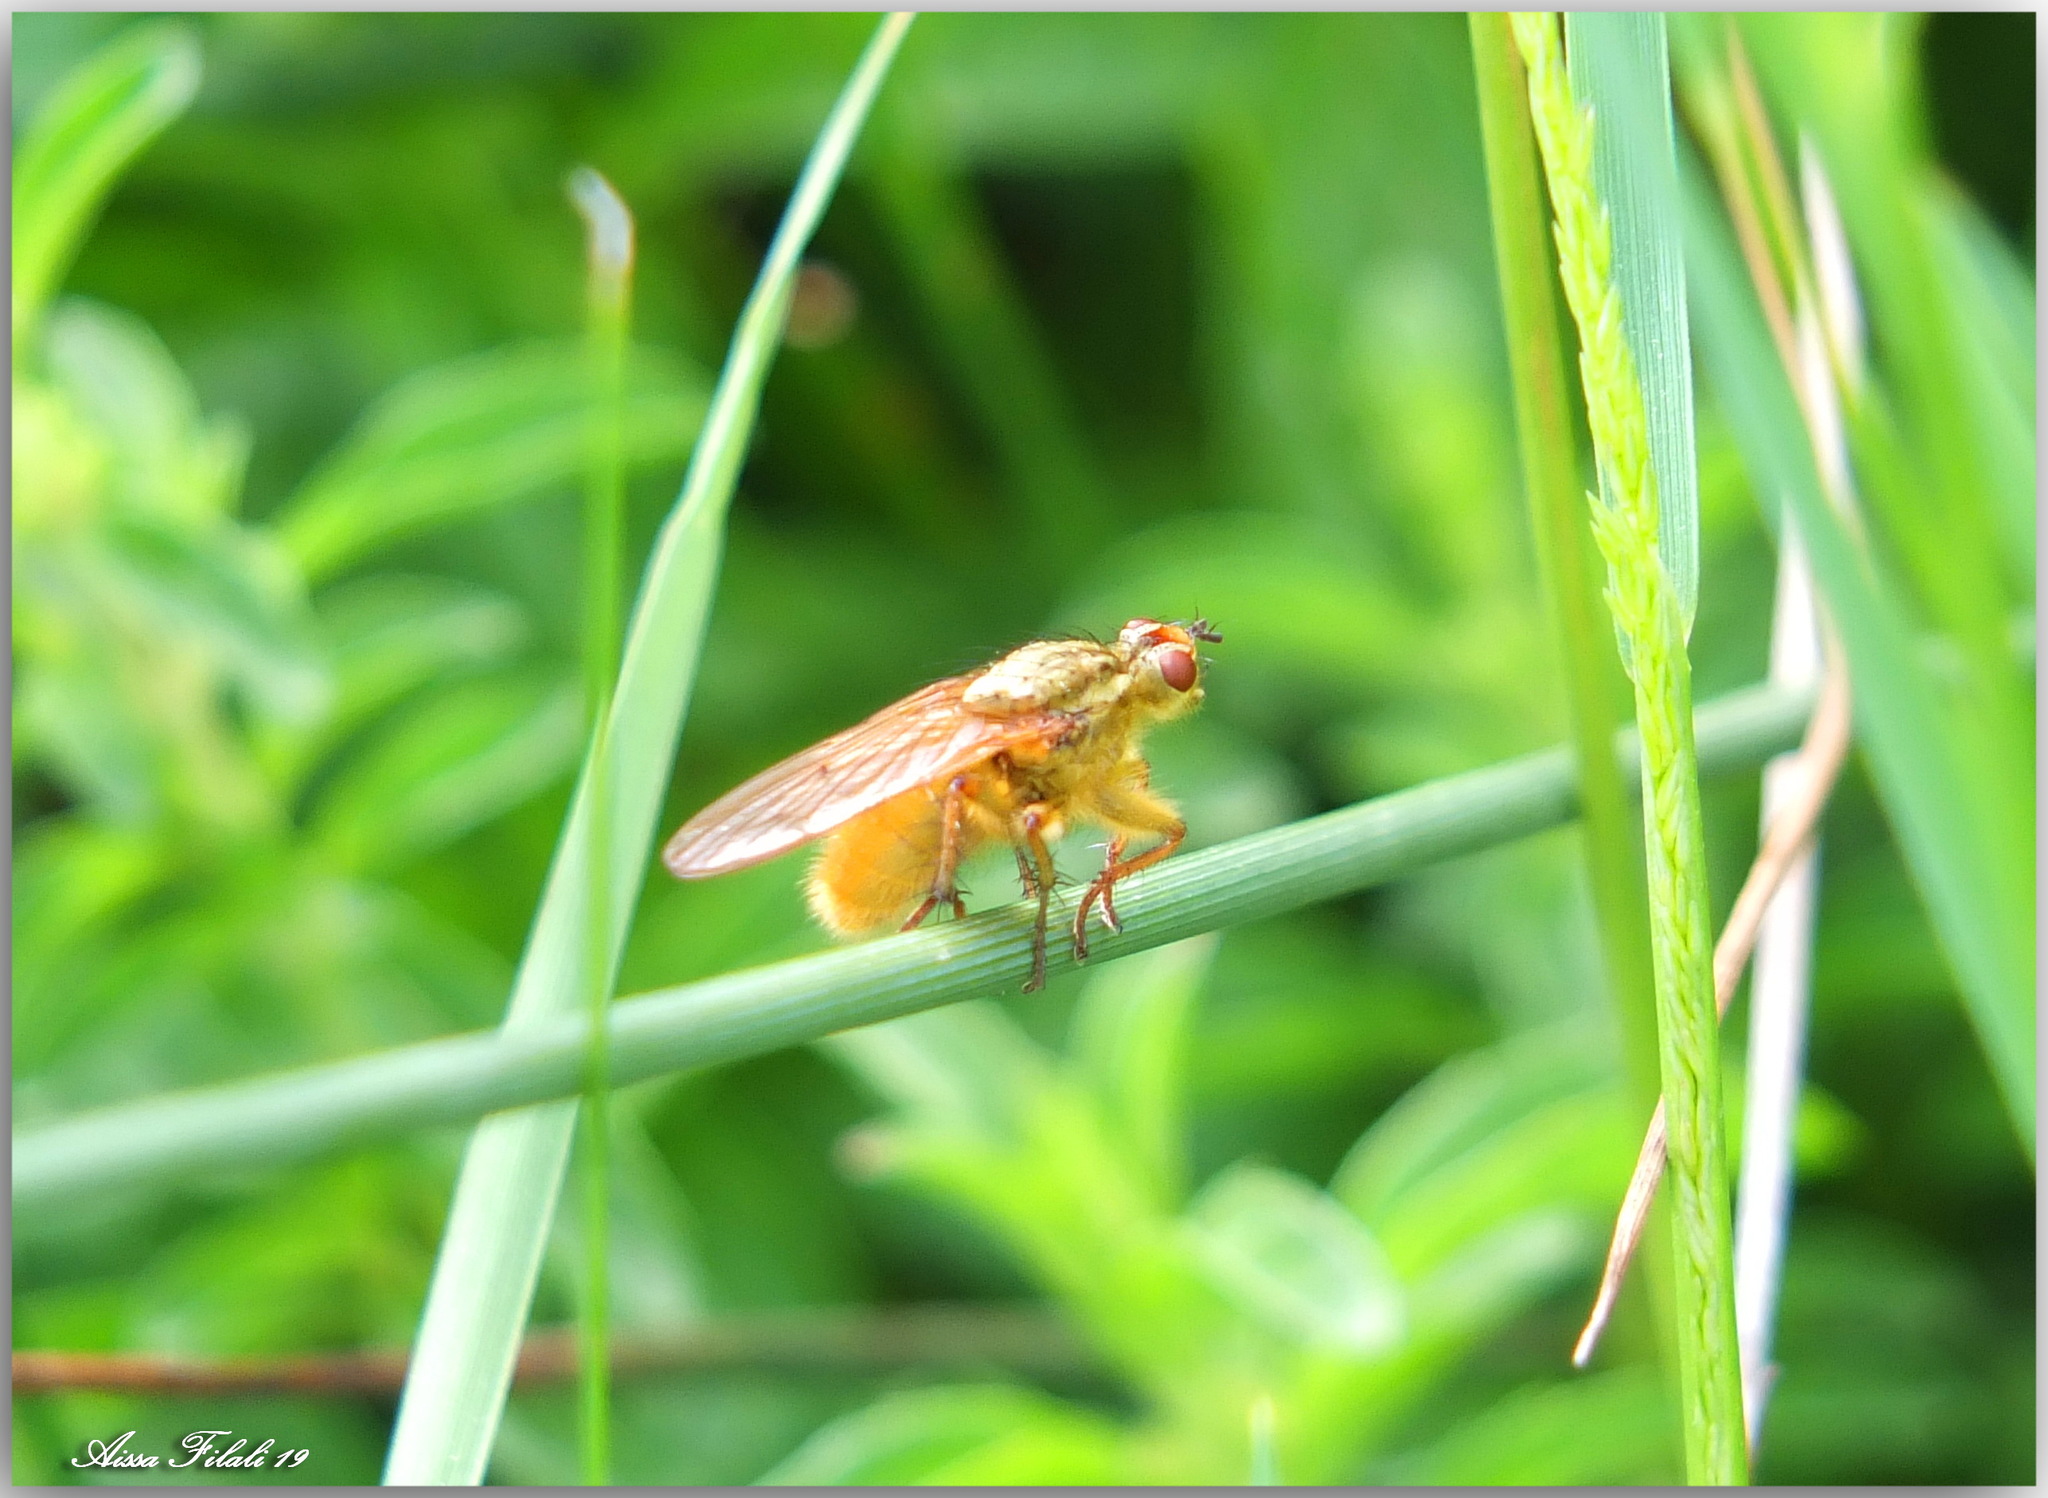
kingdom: Animalia
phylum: Arthropoda
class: Insecta
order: Diptera
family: Scathophagidae
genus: Scathophaga
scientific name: Scathophaga stercoraria
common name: Yellow dung fly
